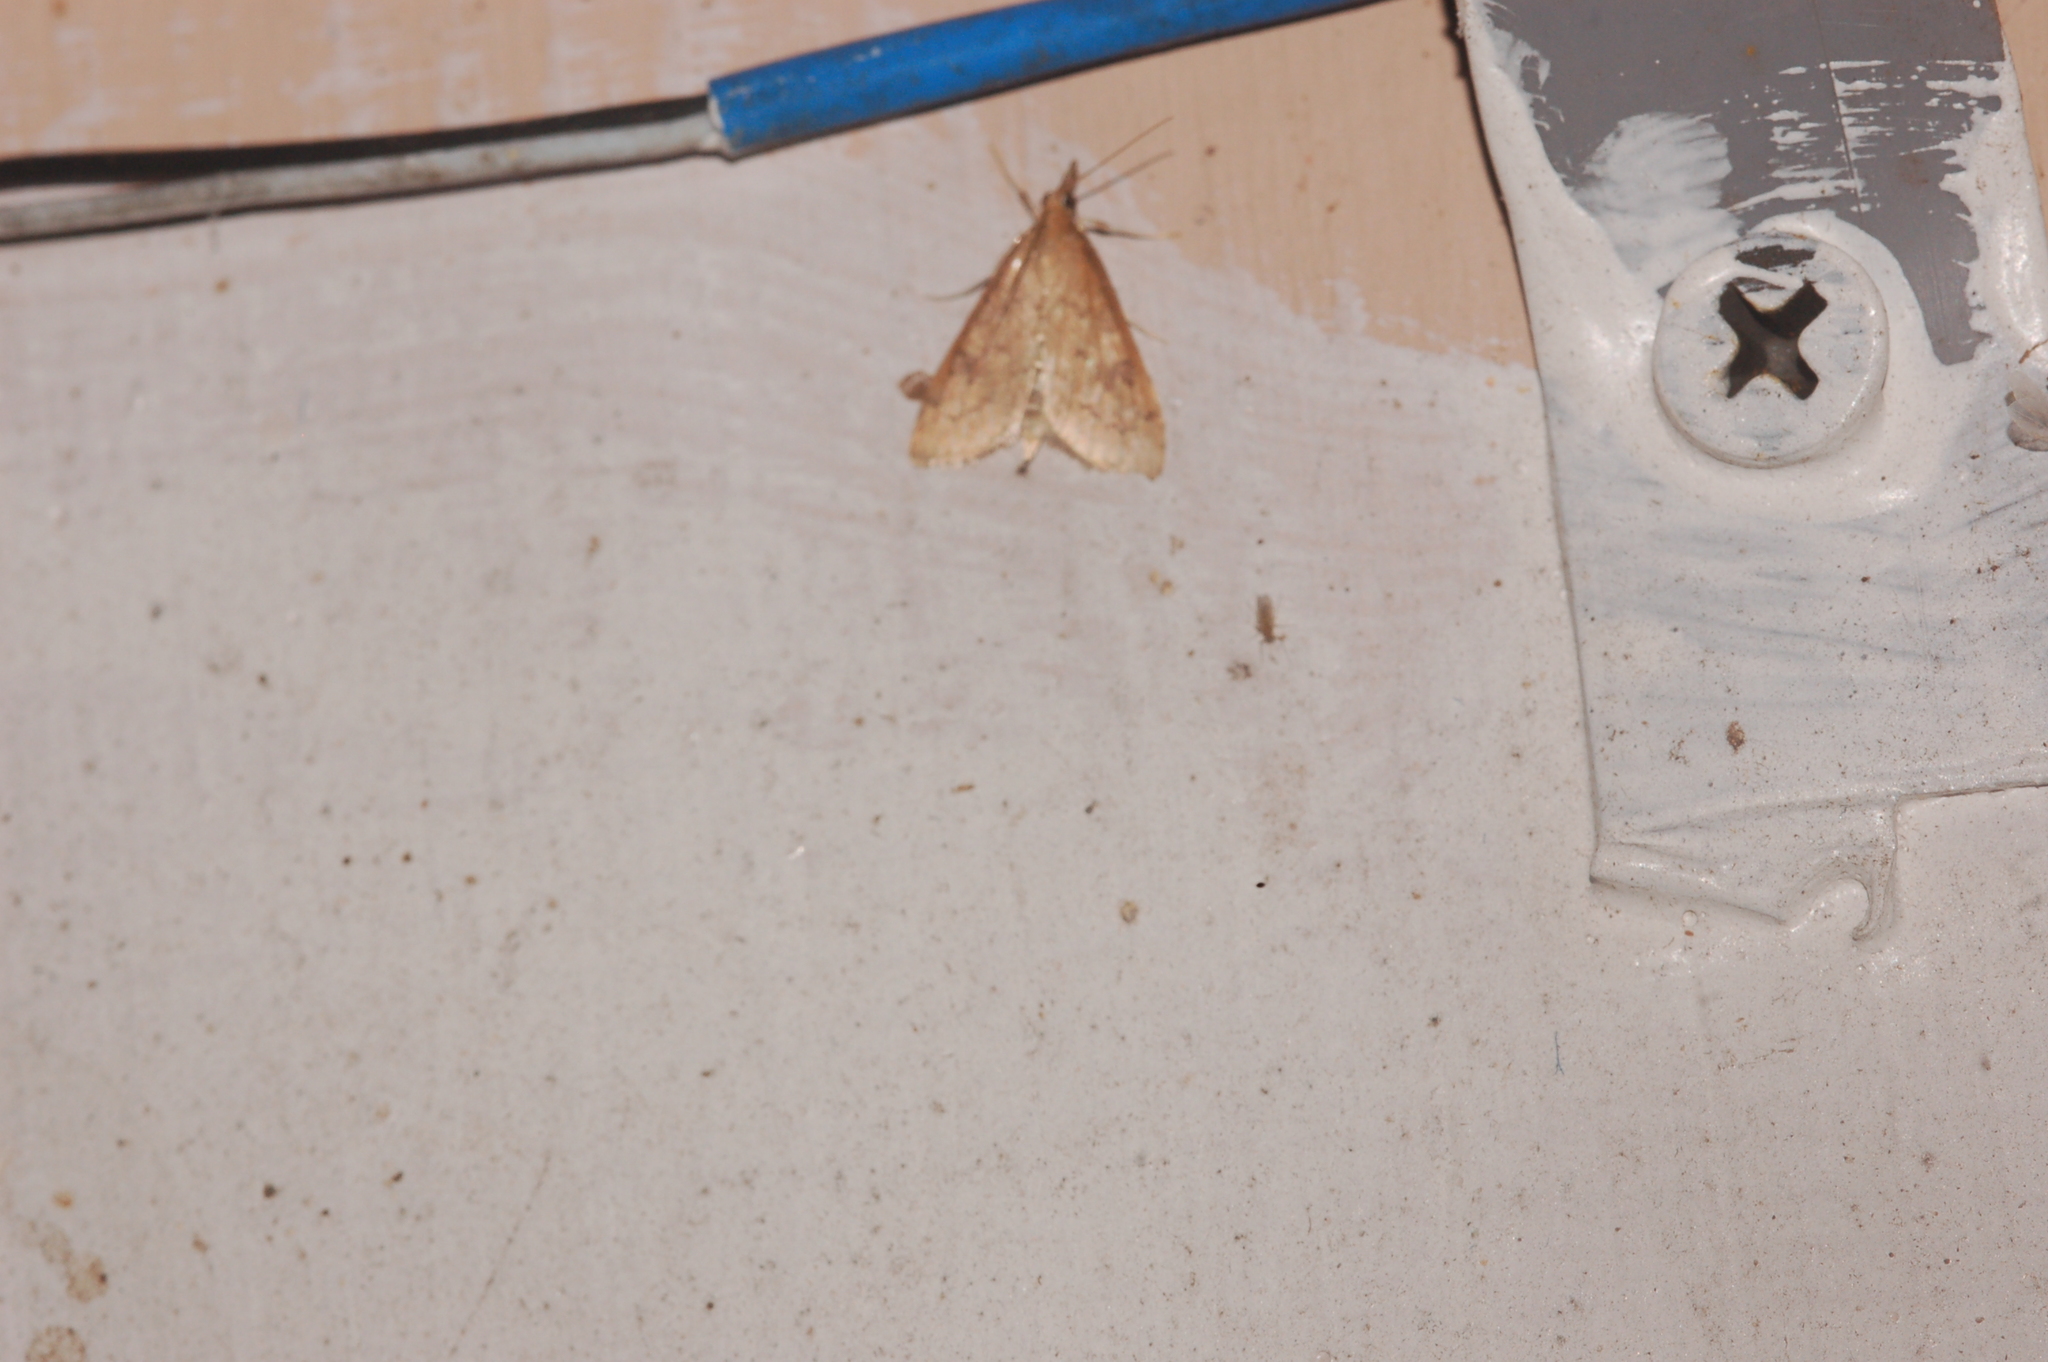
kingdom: Animalia
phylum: Arthropoda
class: Insecta
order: Lepidoptera
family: Crambidae
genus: Udea
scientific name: Udea rubigalis
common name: Celery leaftier moth
